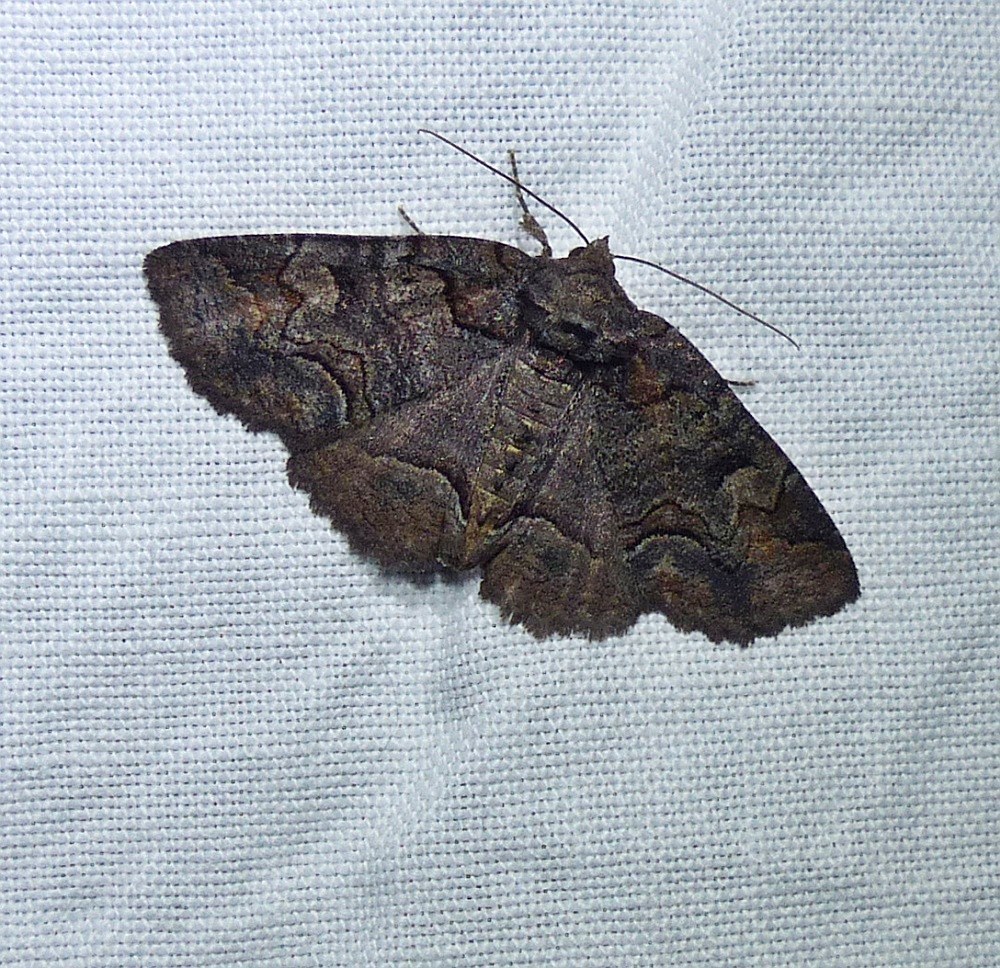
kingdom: Animalia
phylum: Arthropoda
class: Insecta
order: Lepidoptera
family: Erebidae
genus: Zale
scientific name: Zale helata
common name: Brown-spotted zale moth
